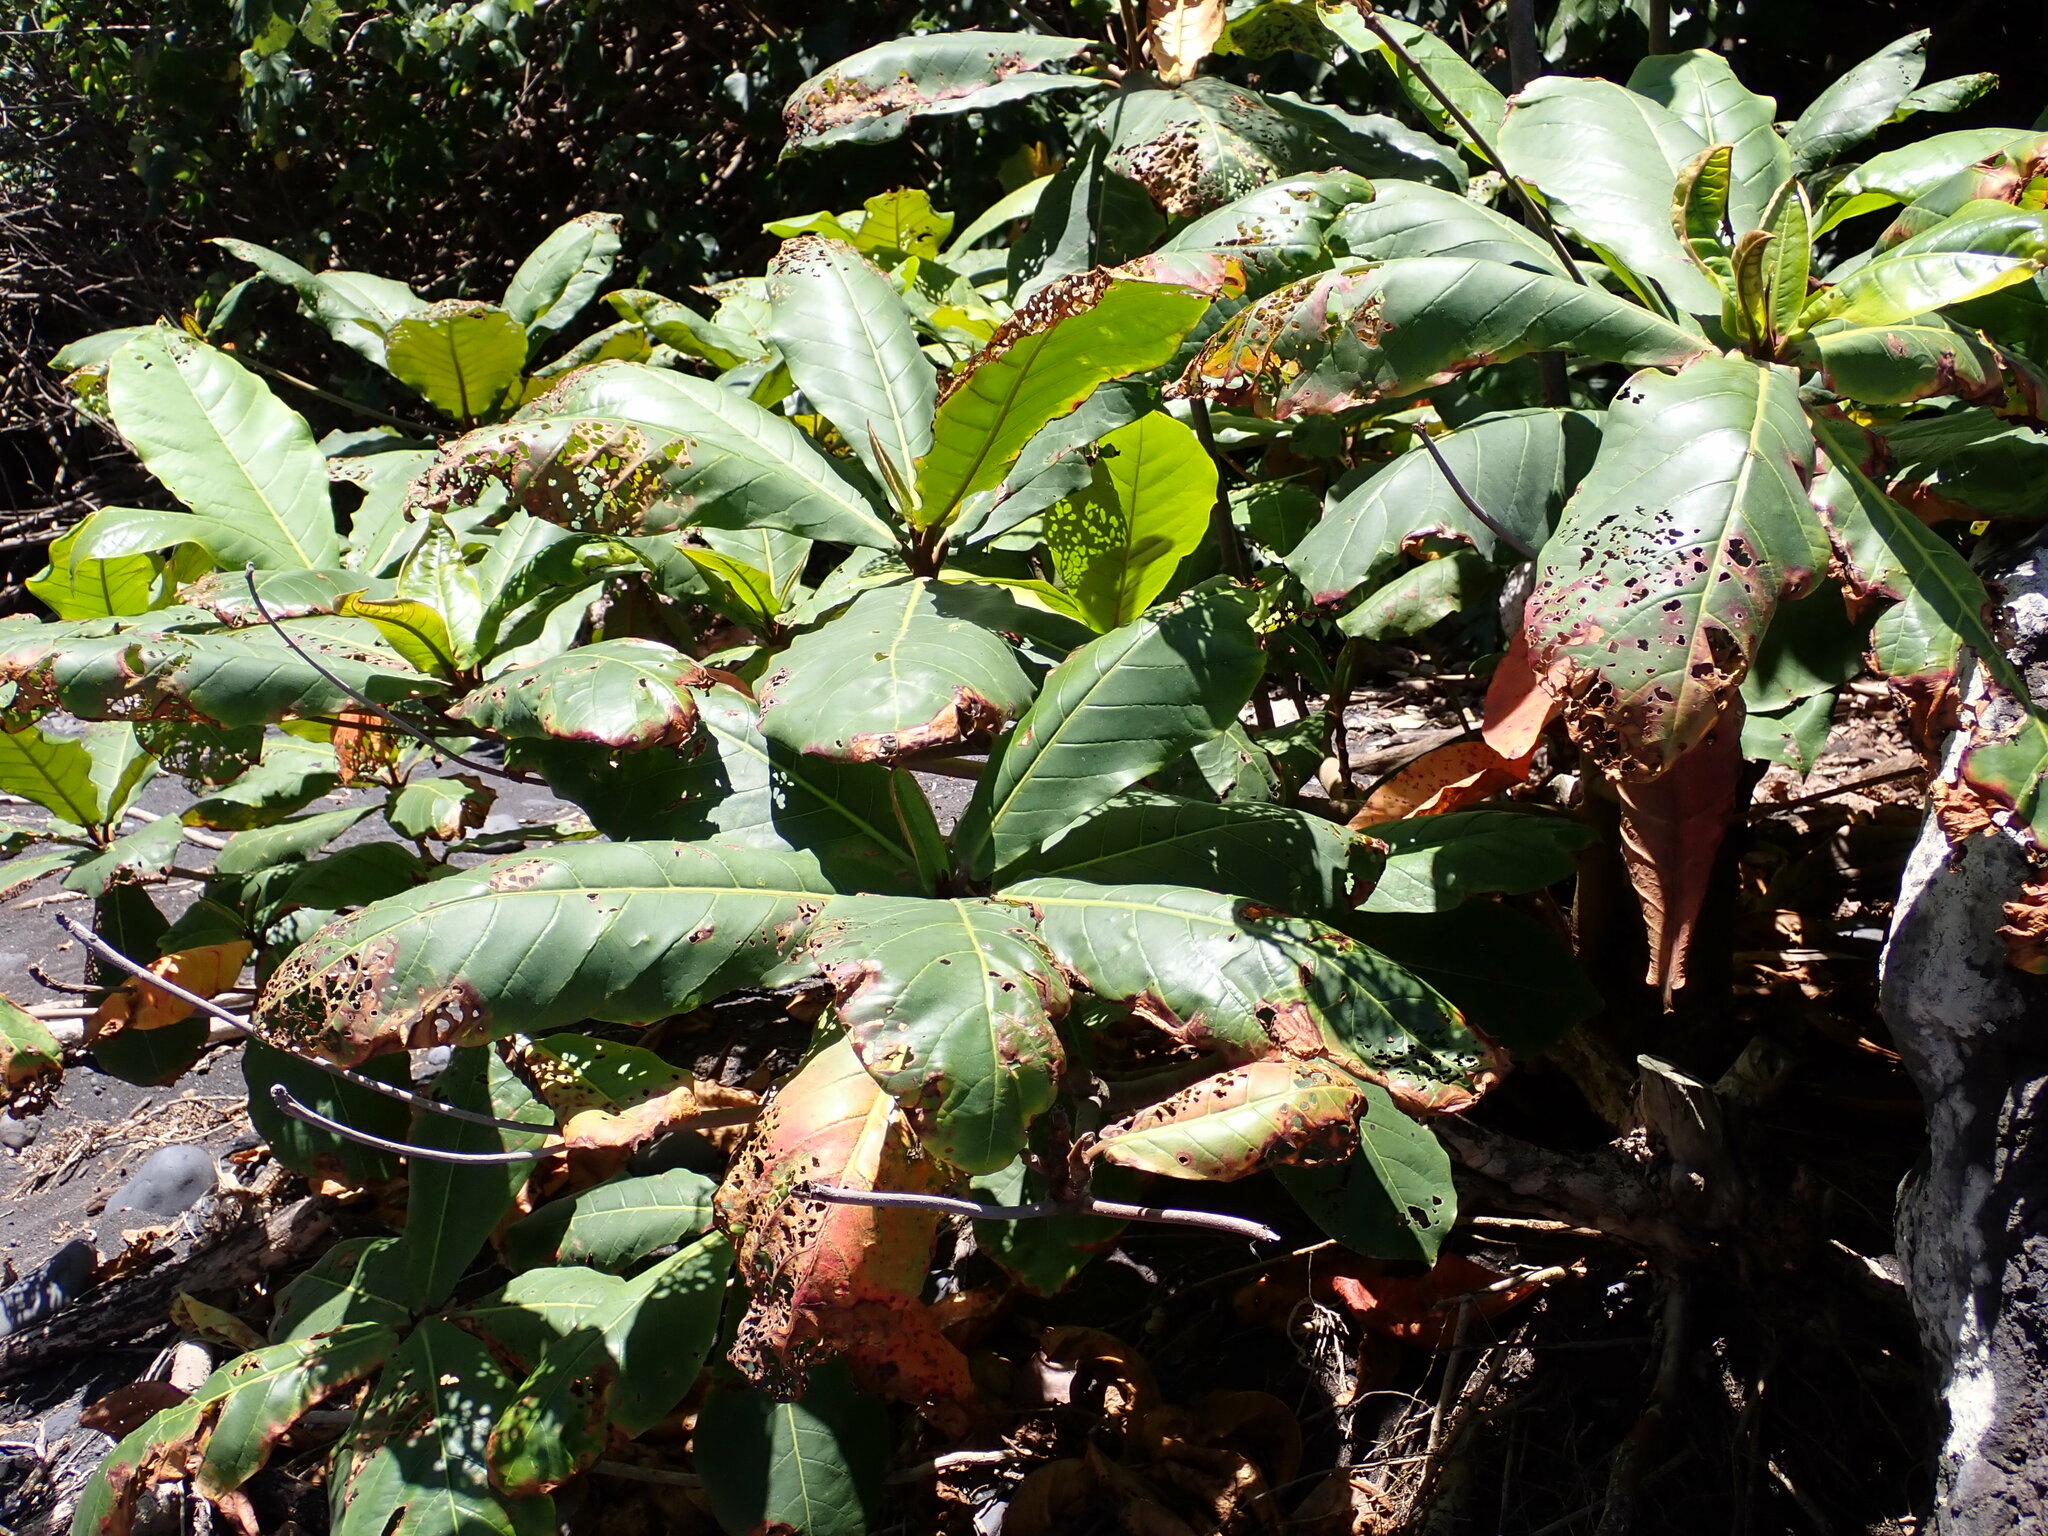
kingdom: Plantae
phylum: Tracheophyta
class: Magnoliopsida
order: Myrtales
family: Combretaceae
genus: Terminalia
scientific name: Terminalia catappa
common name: Tropical almond
